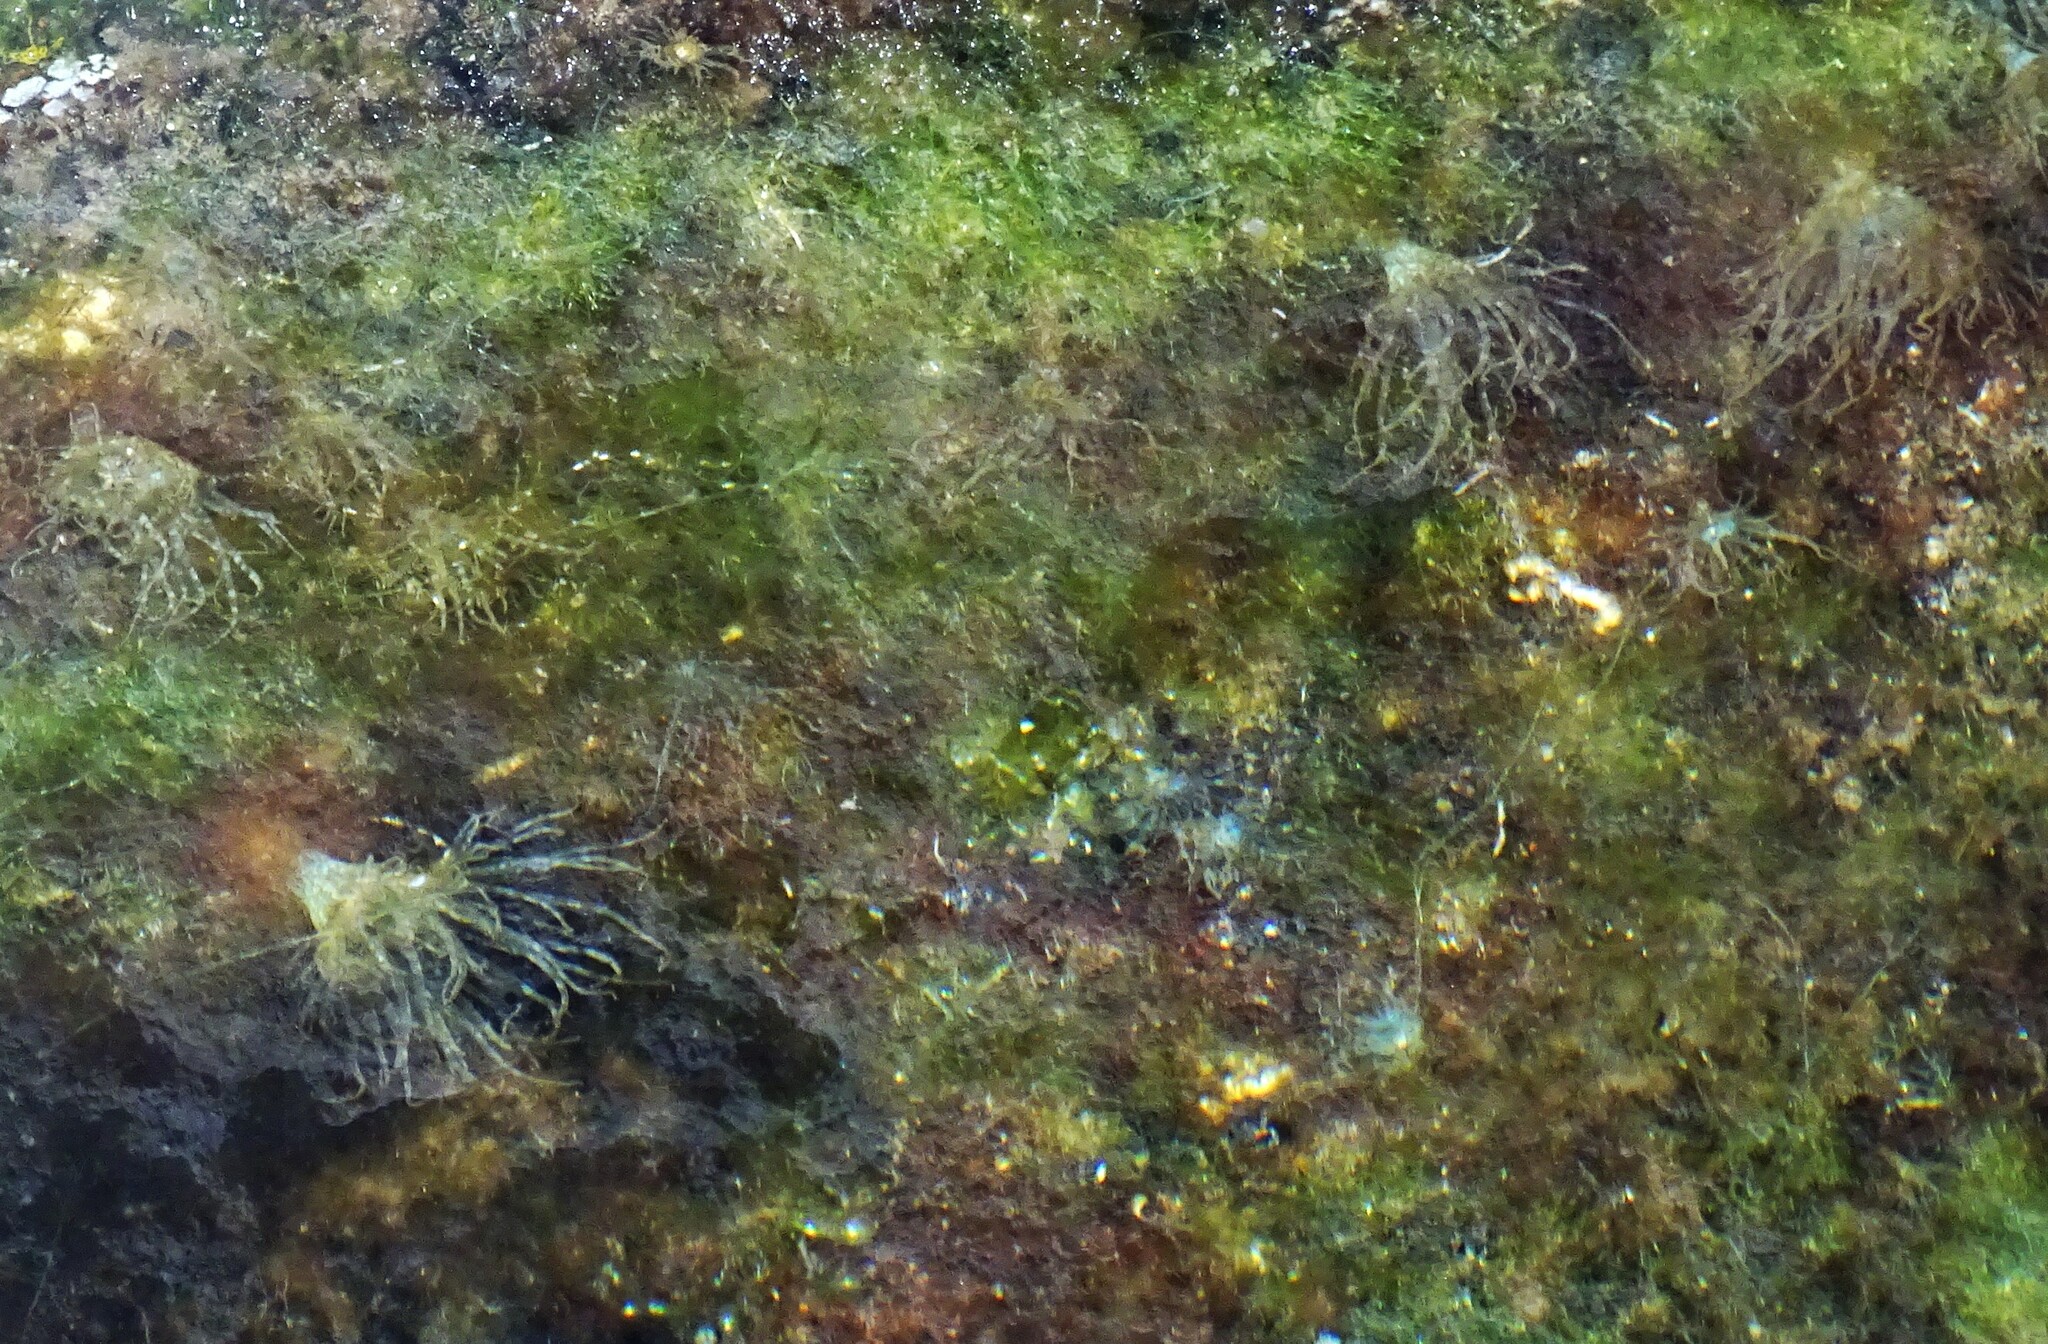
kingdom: Animalia
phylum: Cnidaria
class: Anthozoa
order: Actiniaria
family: Aiptasiidae
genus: Exaiptasia
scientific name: Exaiptasia diaphana
